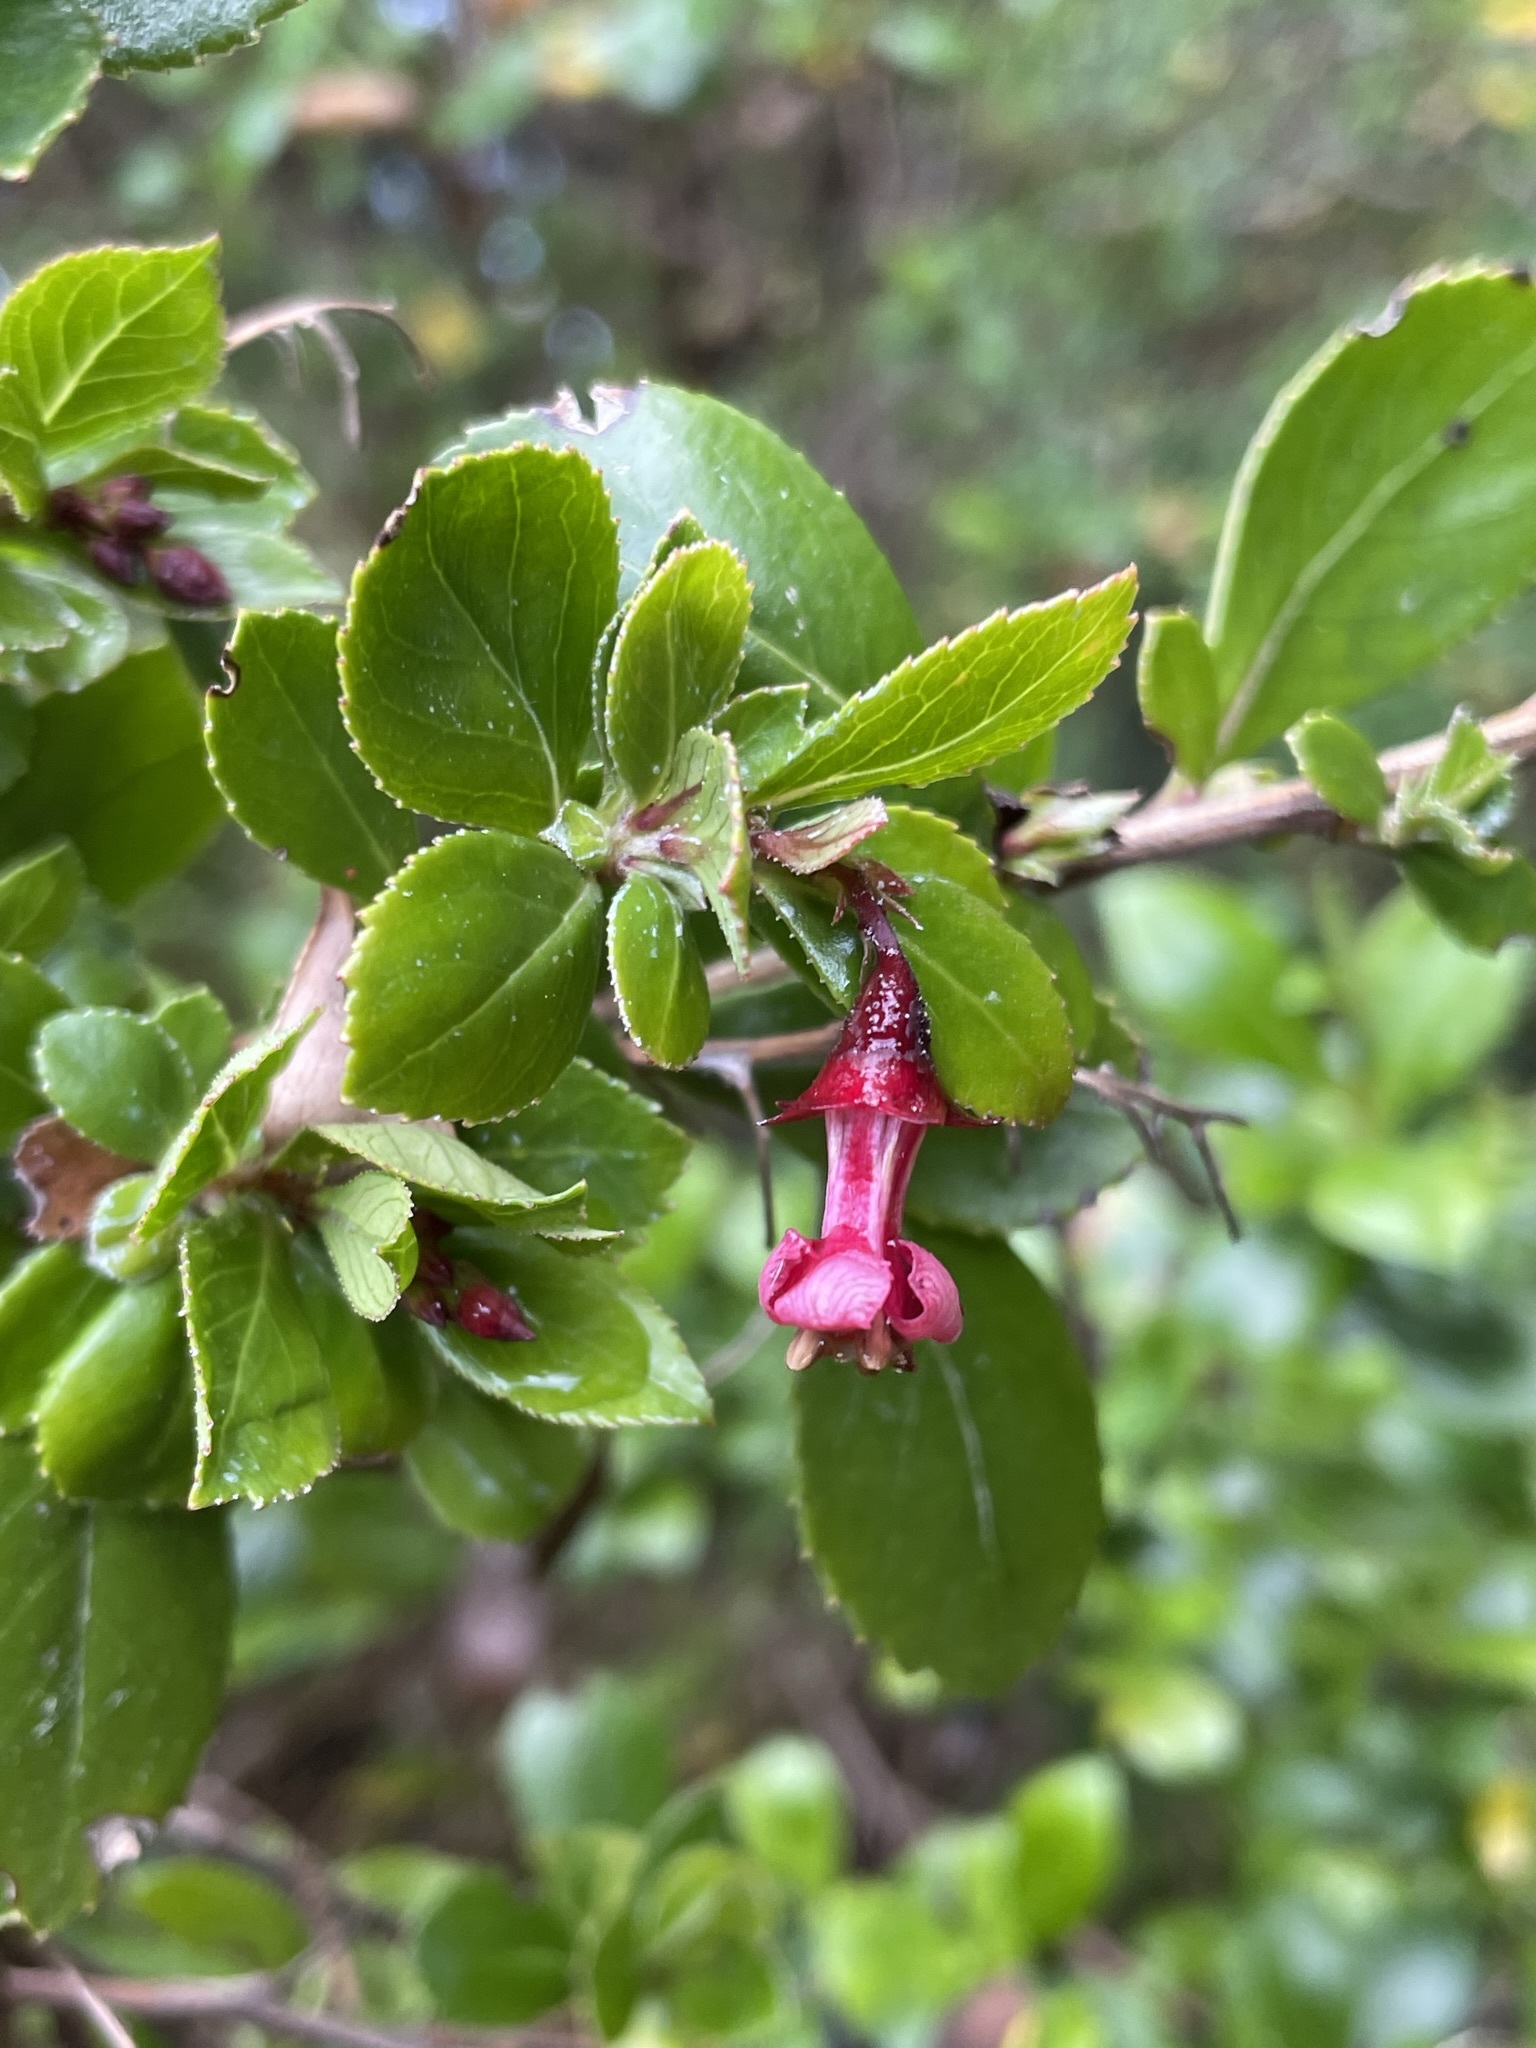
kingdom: Plantae
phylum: Tracheophyta
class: Magnoliopsida
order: Escalloniales
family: Escalloniaceae
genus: Escallonia
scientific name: Escallonia rubra
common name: Redclaws
